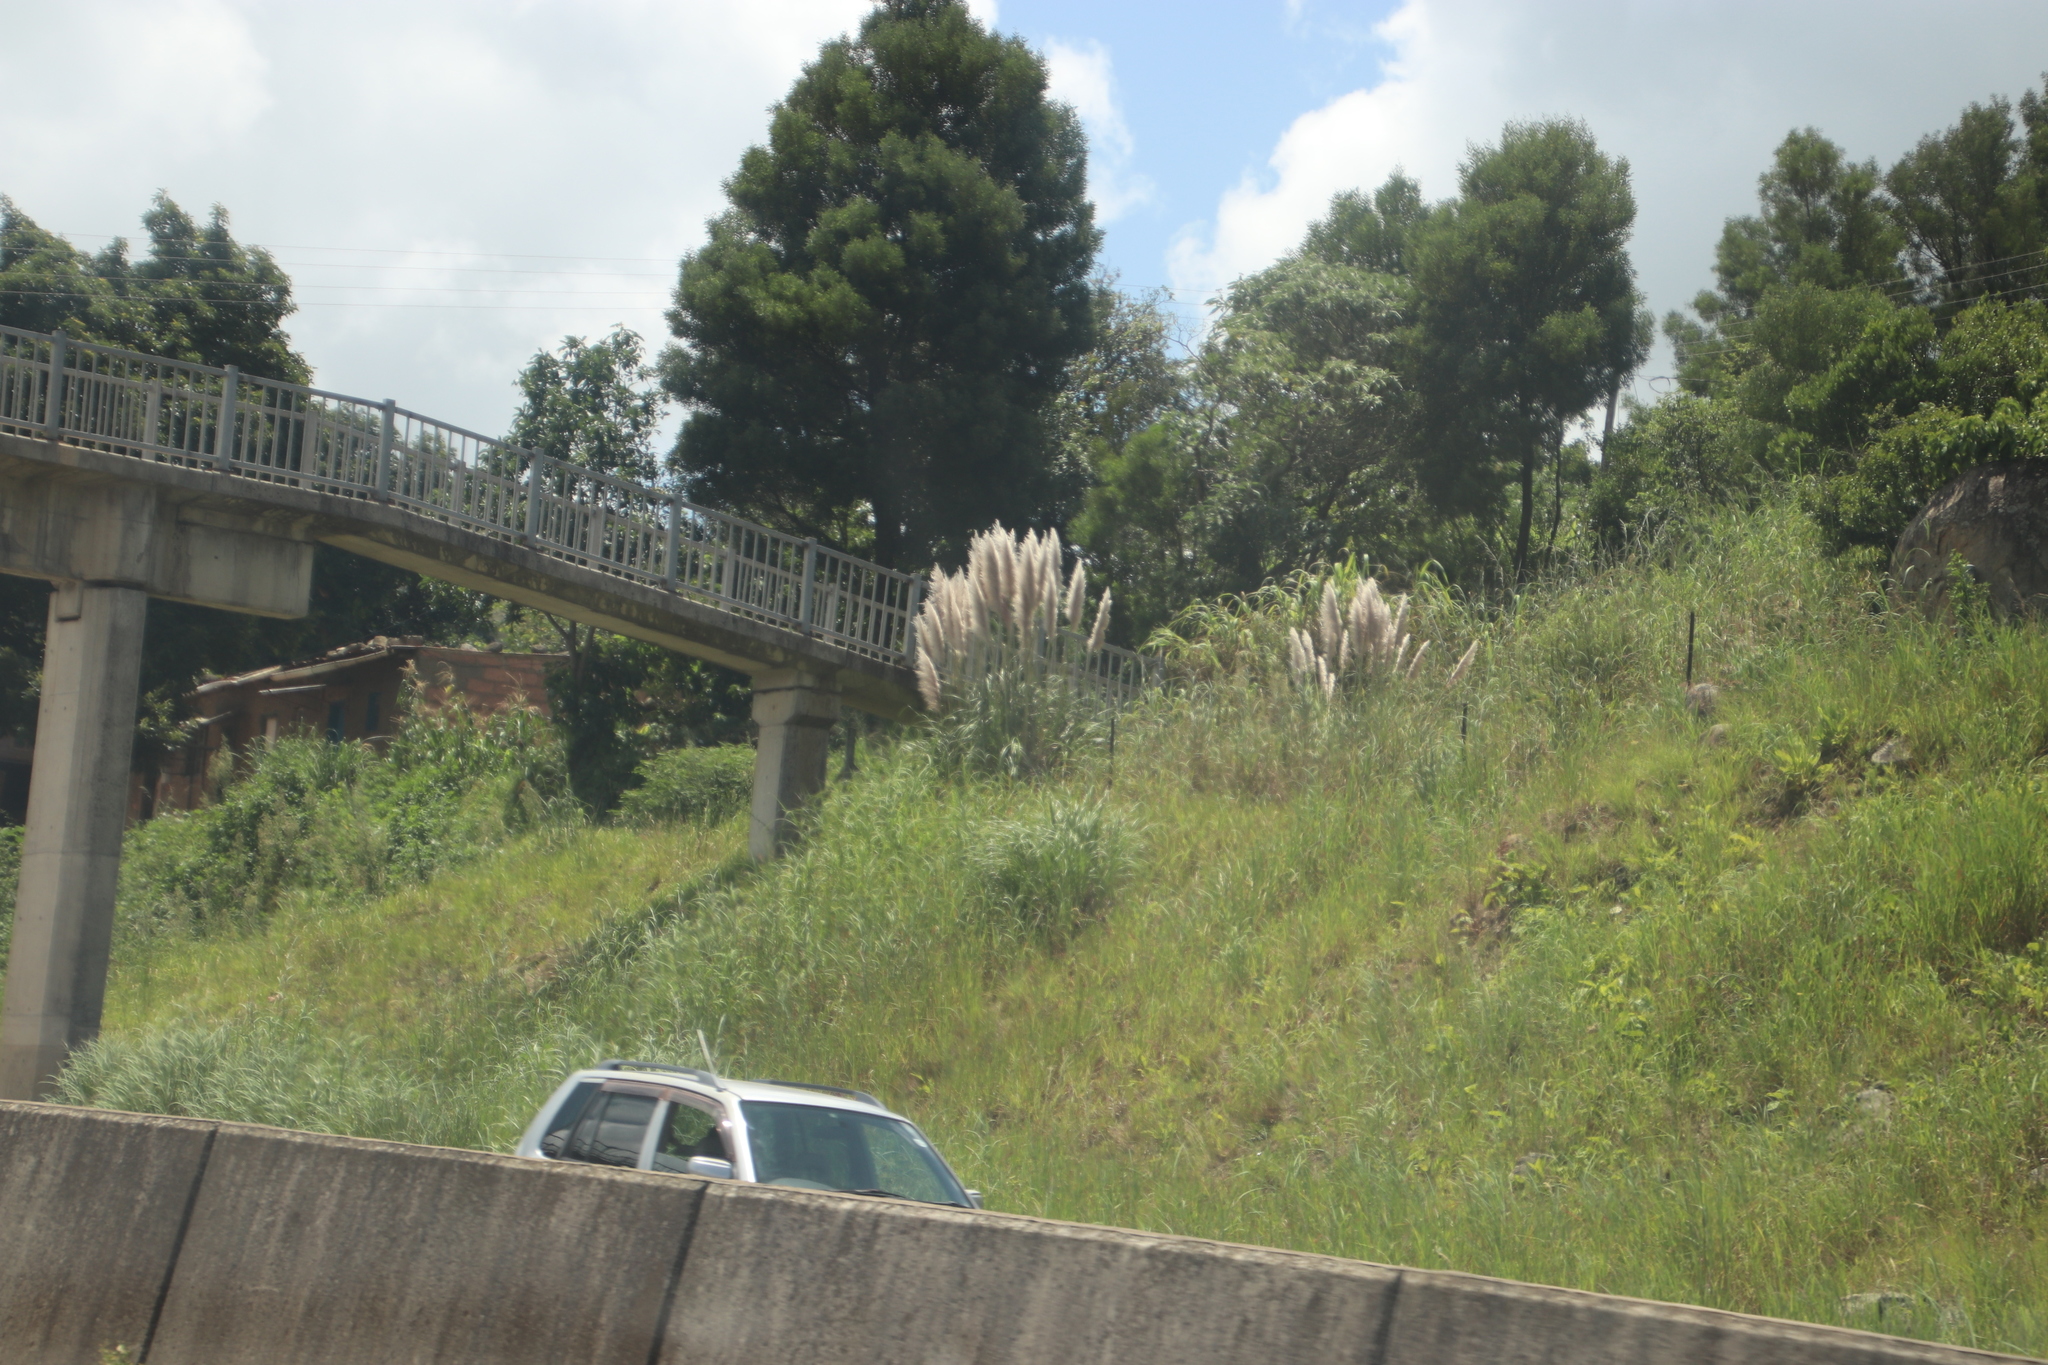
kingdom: Plantae
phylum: Tracheophyta
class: Liliopsida
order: Poales
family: Poaceae
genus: Cortaderia
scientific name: Cortaderia selloana
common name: Uruguayan pampas grass
